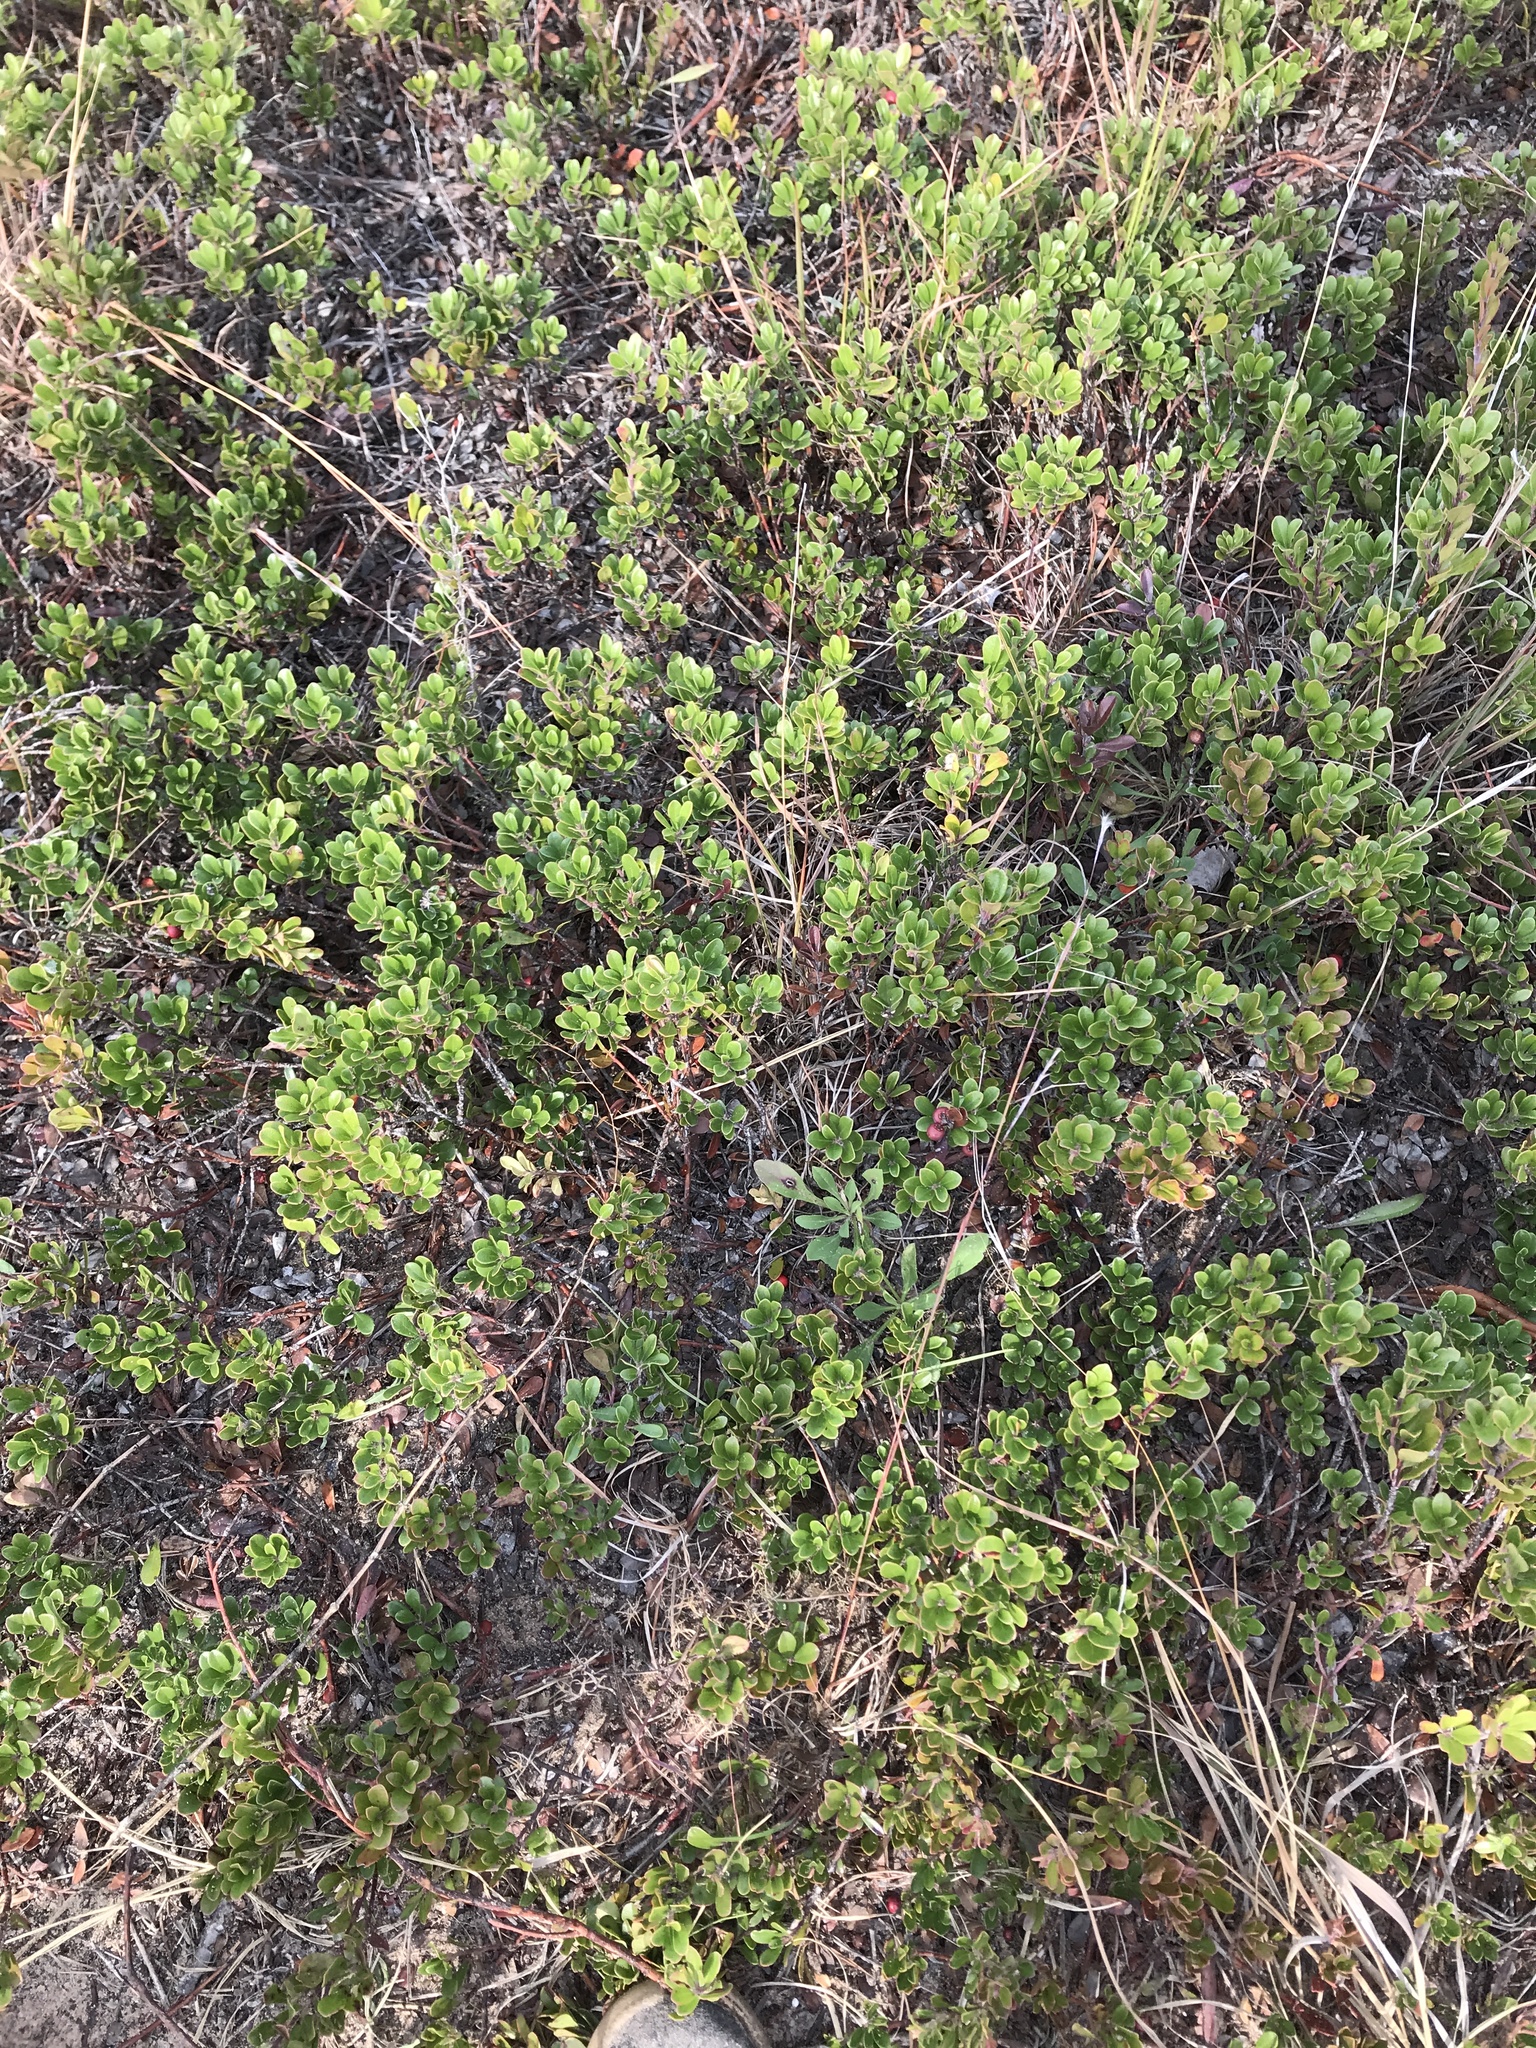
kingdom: Plantae
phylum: Tracheophyta
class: Magnoliopsida
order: Ericales
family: Ericaceae
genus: Arctostaphylos
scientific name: Arctostaphylos uva-ursi
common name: Bearberry
